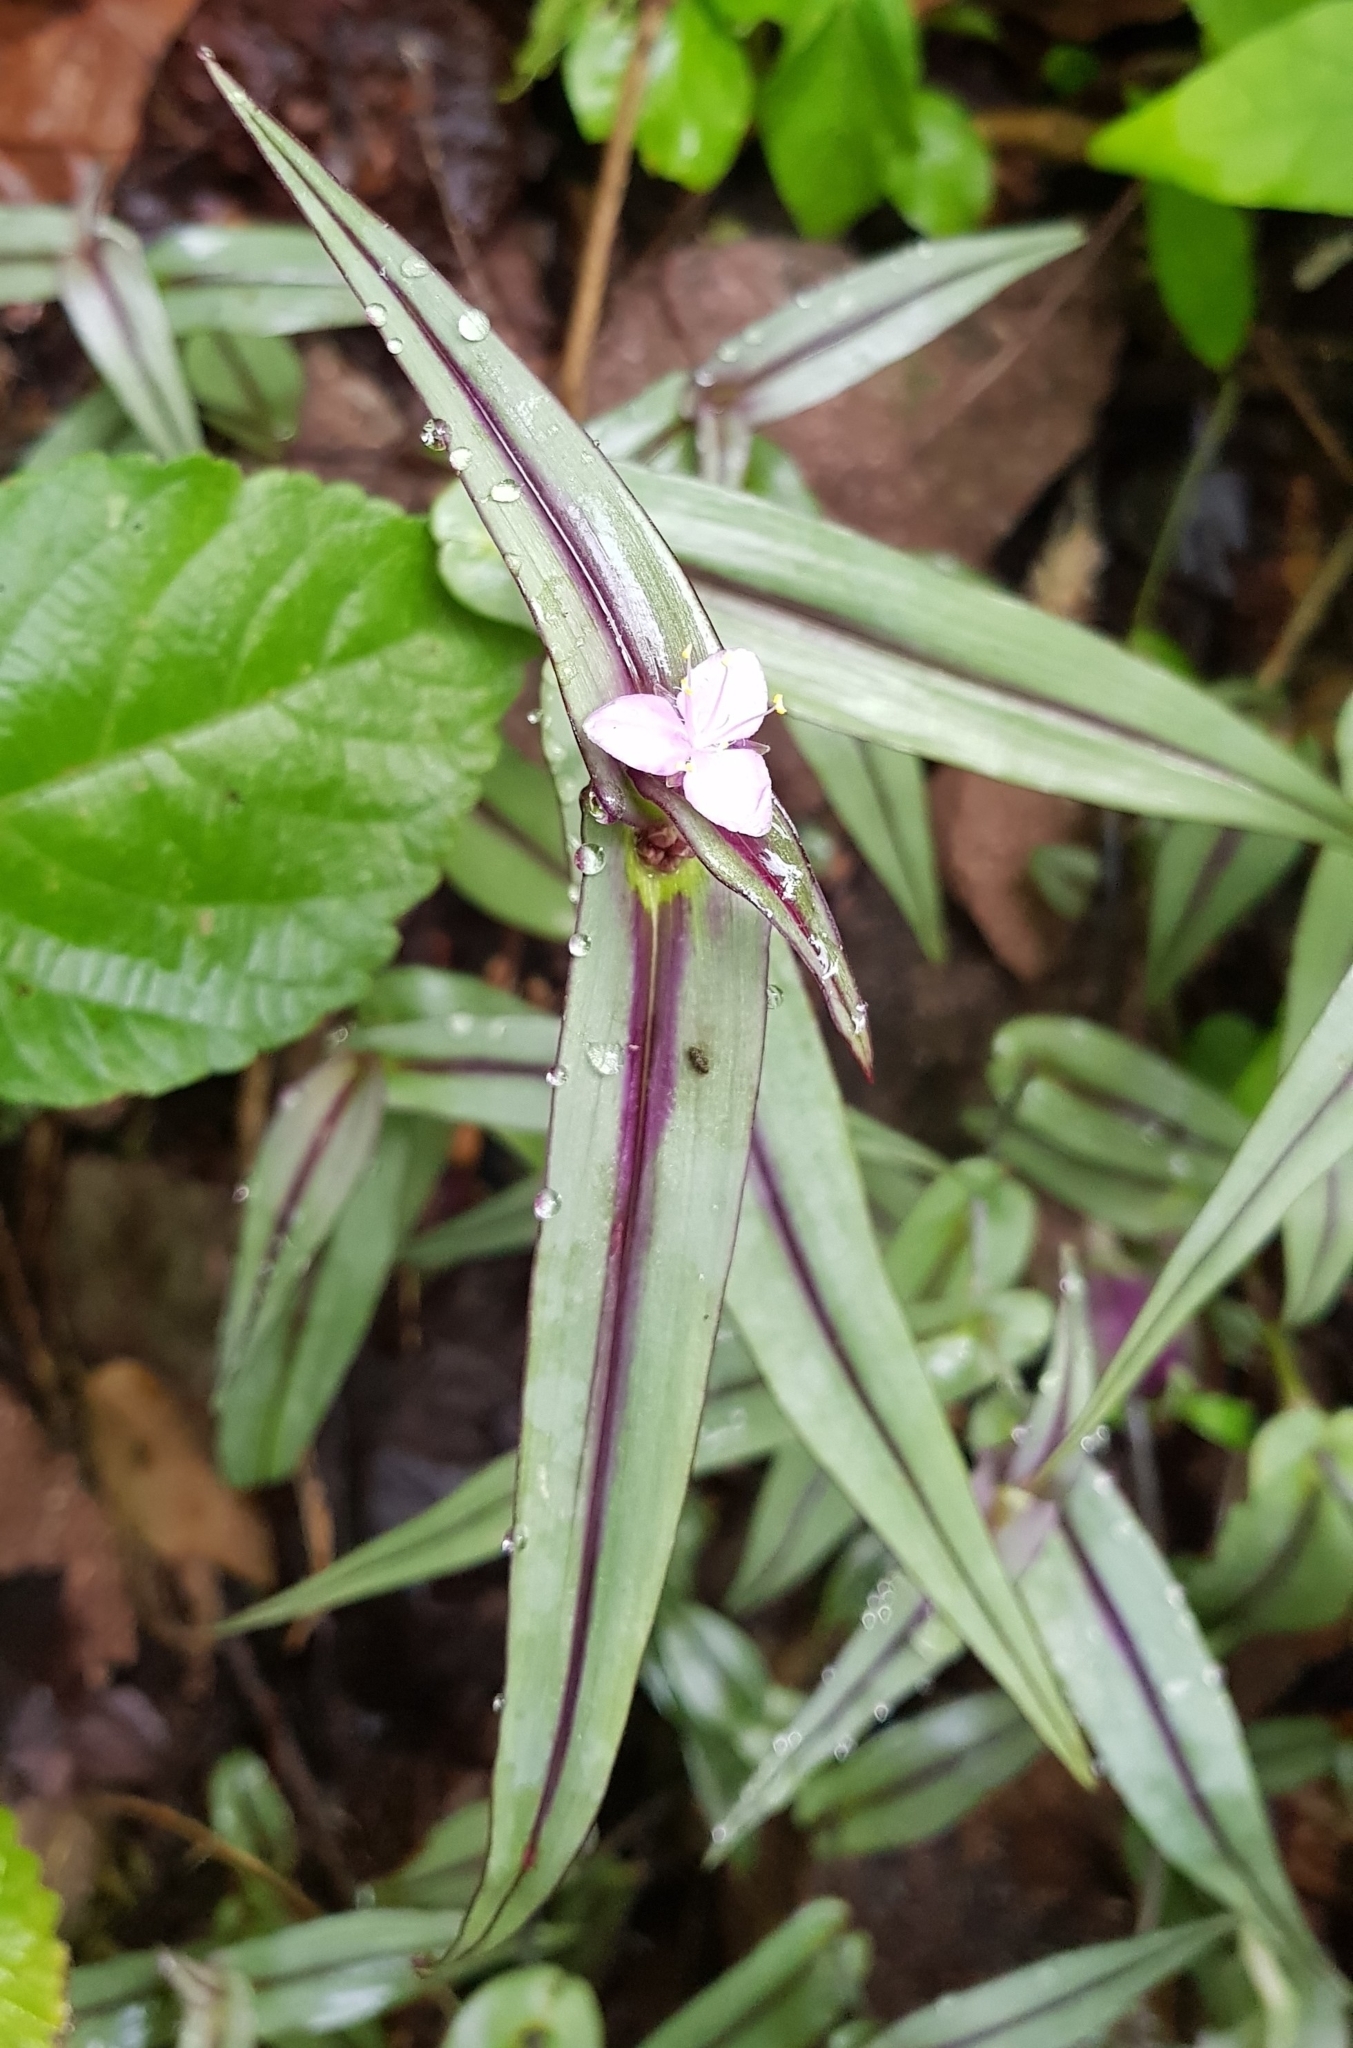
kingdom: Plantae
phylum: Tracheophyta
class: Liliopsida
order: Commelinales
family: Commelinaceae
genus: Tradescantia
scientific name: Tradescantia zebrina
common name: Inchplant
